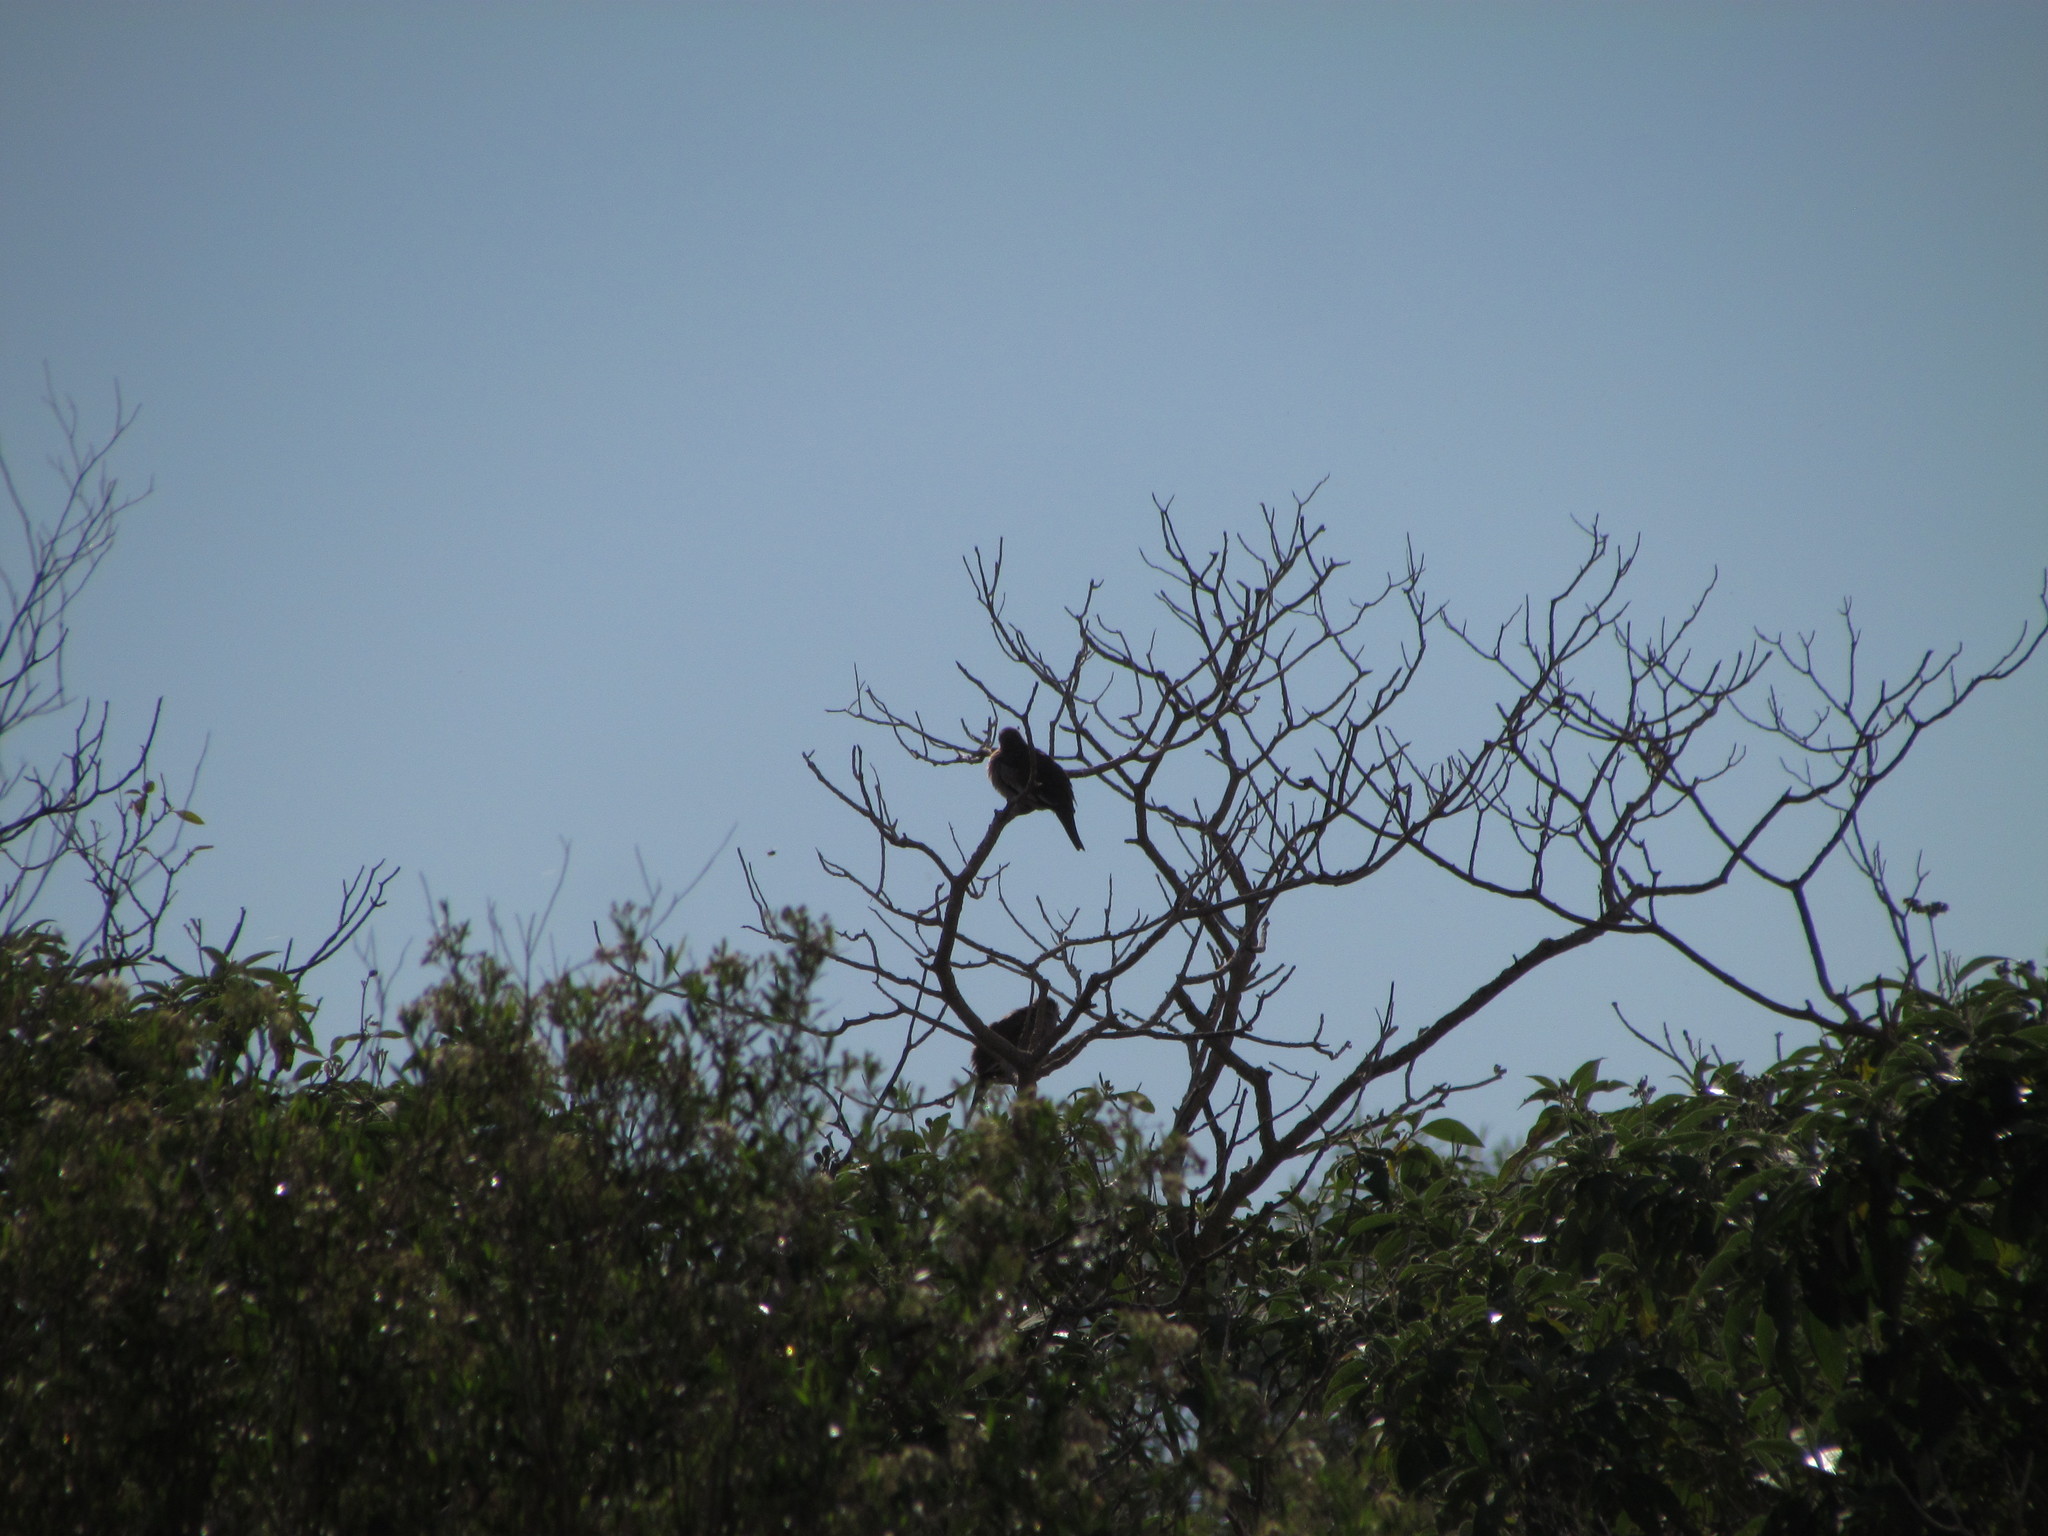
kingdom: Animalia
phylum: Chordata
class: Aves
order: Columbiformes
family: Columbidae
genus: Columbina
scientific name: Columbina picui
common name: Picui ground dove
